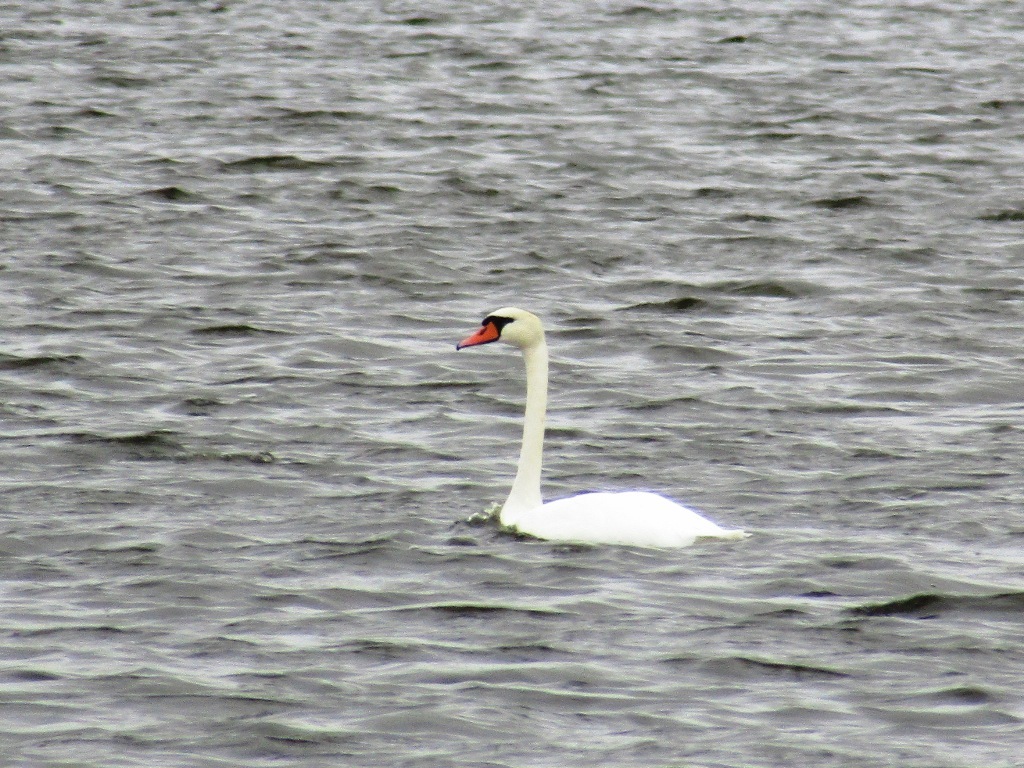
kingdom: Animalia
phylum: Chordata
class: Aves
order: Anseriformes
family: Anatidae
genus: Cygnus
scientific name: Cygnus olor
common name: Mute swan
